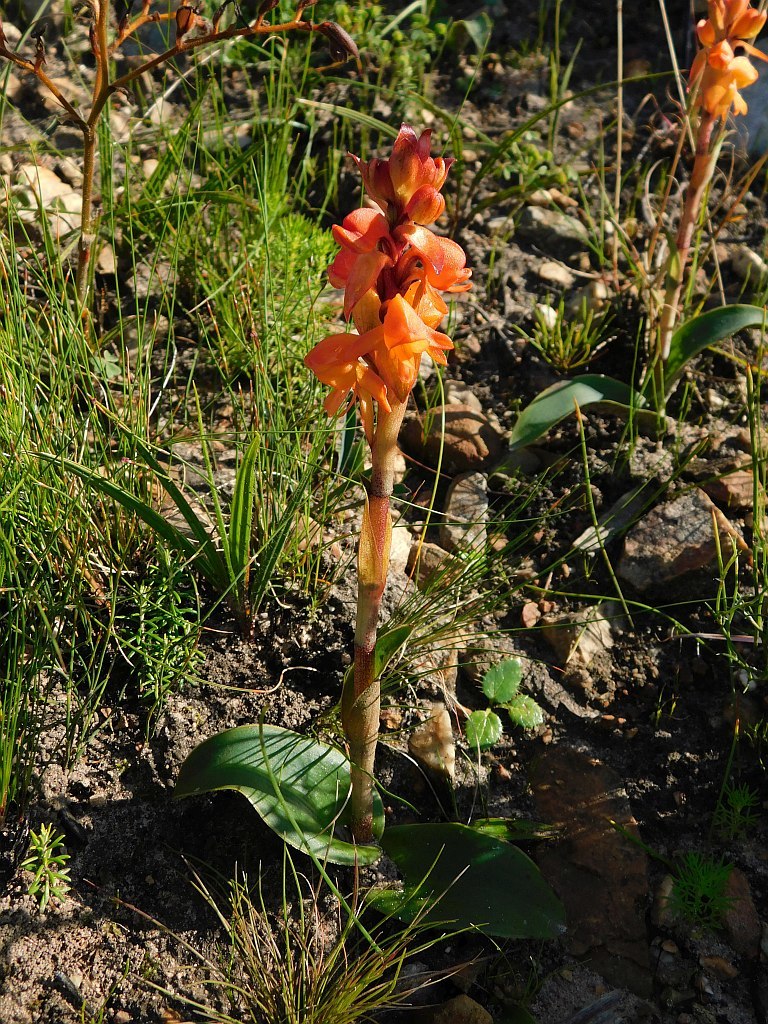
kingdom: Plantae
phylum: Tracheophyta
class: Liliopsida
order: Asparagales
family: Orchidaceae
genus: Satyrium
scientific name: Satyrium coriifolium
